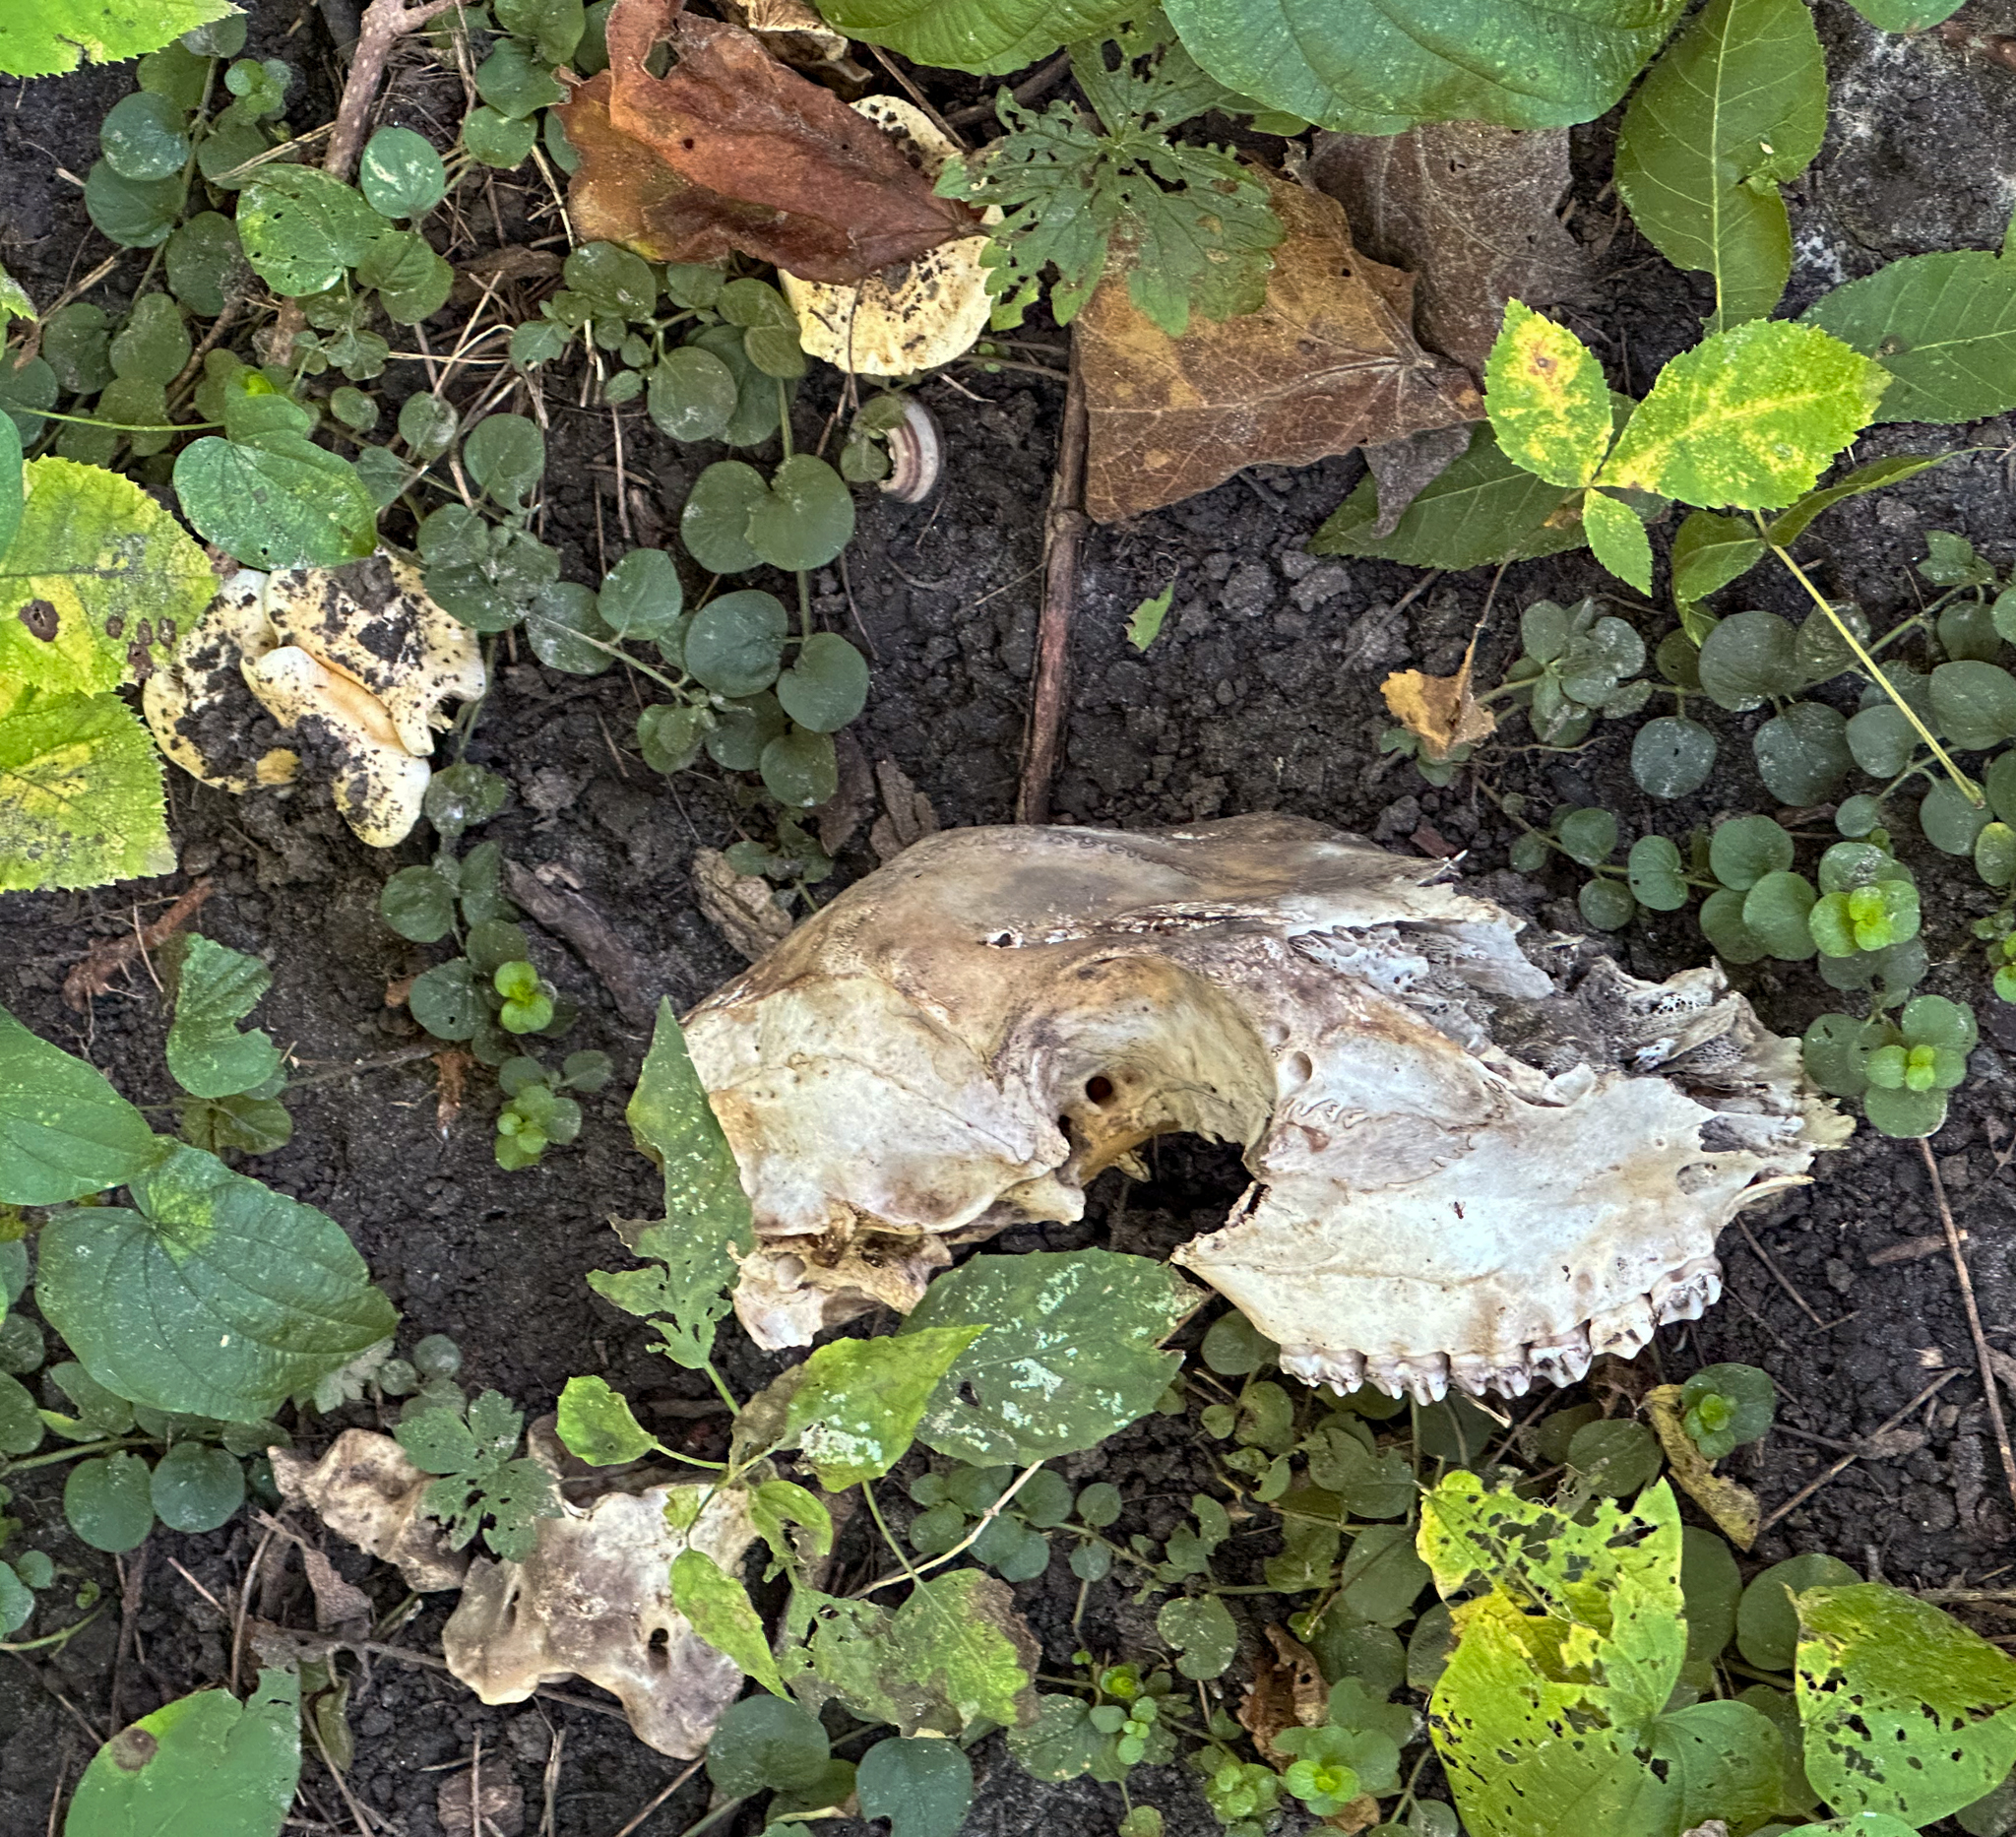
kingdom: Animalia
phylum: Chordata
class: Mammalia
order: Artiodactyla
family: Cervidae
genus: Odocoileus
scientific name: Odocoileus virginianus
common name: White-tailed deer
